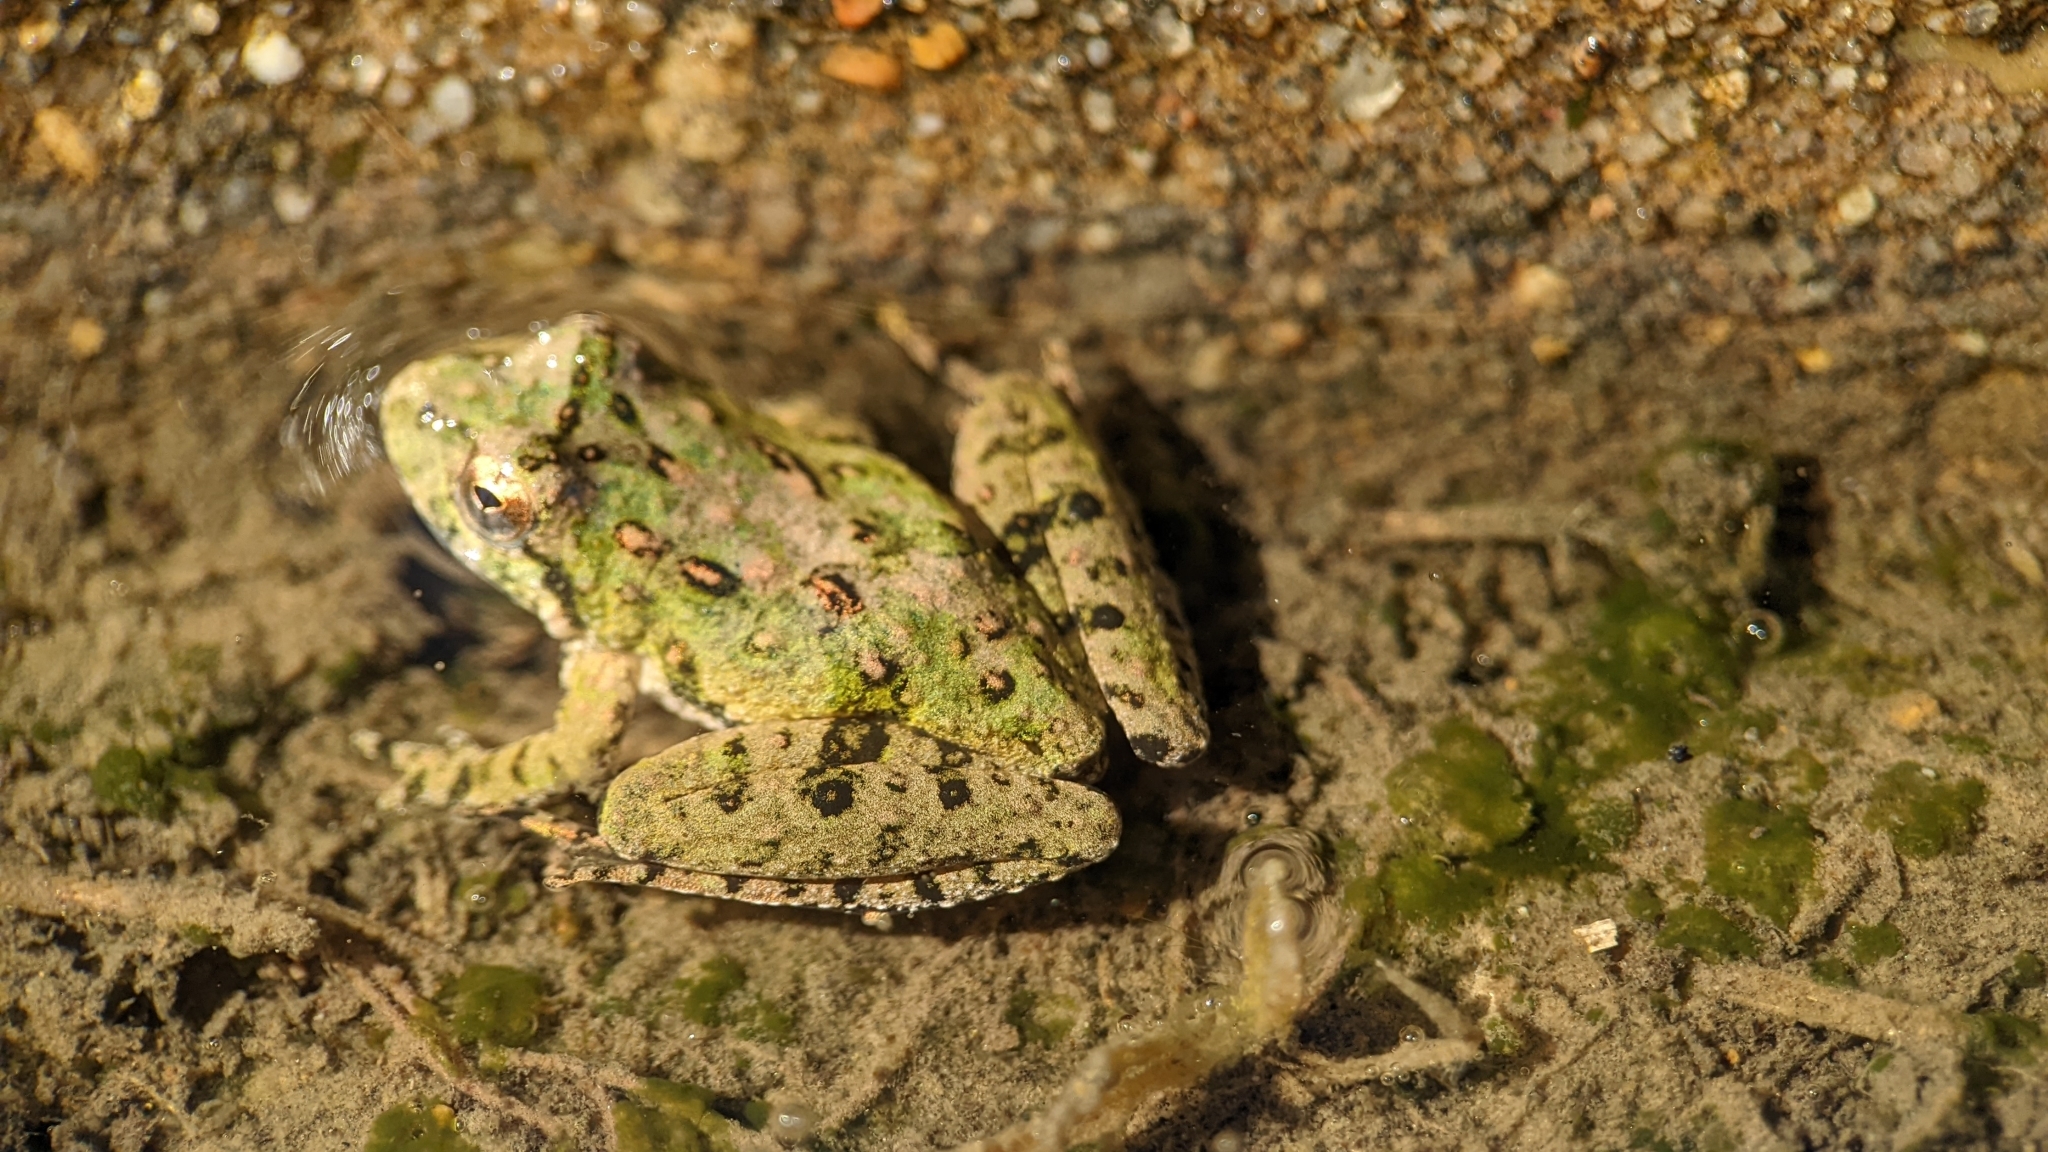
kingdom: Animalia
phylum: Chordata
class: Amphibia
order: Anura
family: Hylidae
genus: Acris
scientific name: Acris blanchardi
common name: Blanchard's cricket frog
